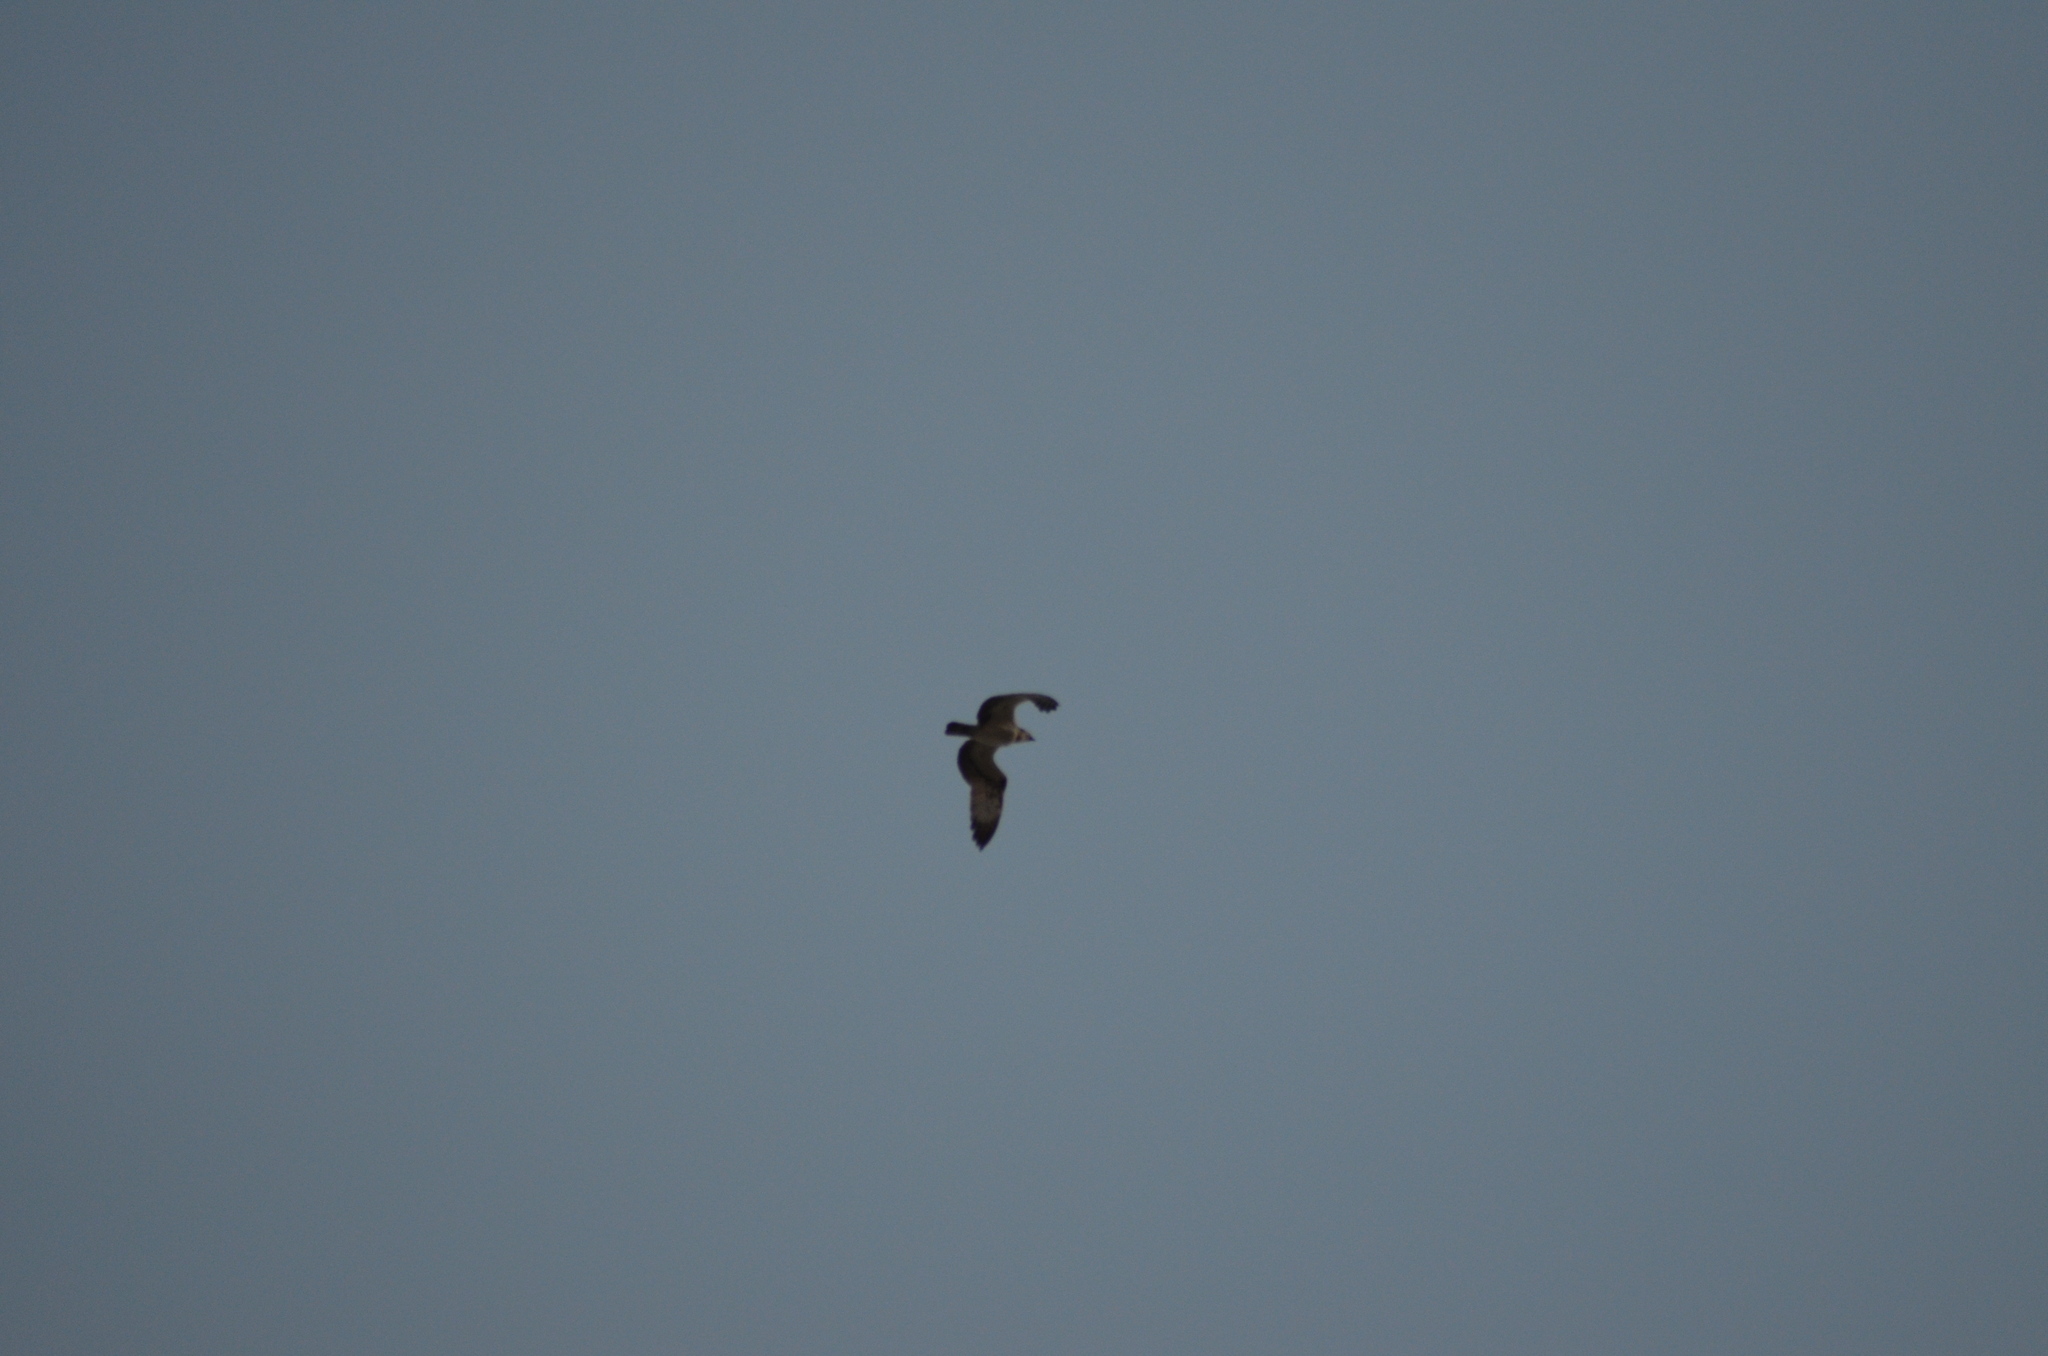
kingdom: Animalia
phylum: Chordata
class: Aves
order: Accipitriformes
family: Pandionidae
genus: Pandion
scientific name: Pandion haliaetus
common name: Osprey
